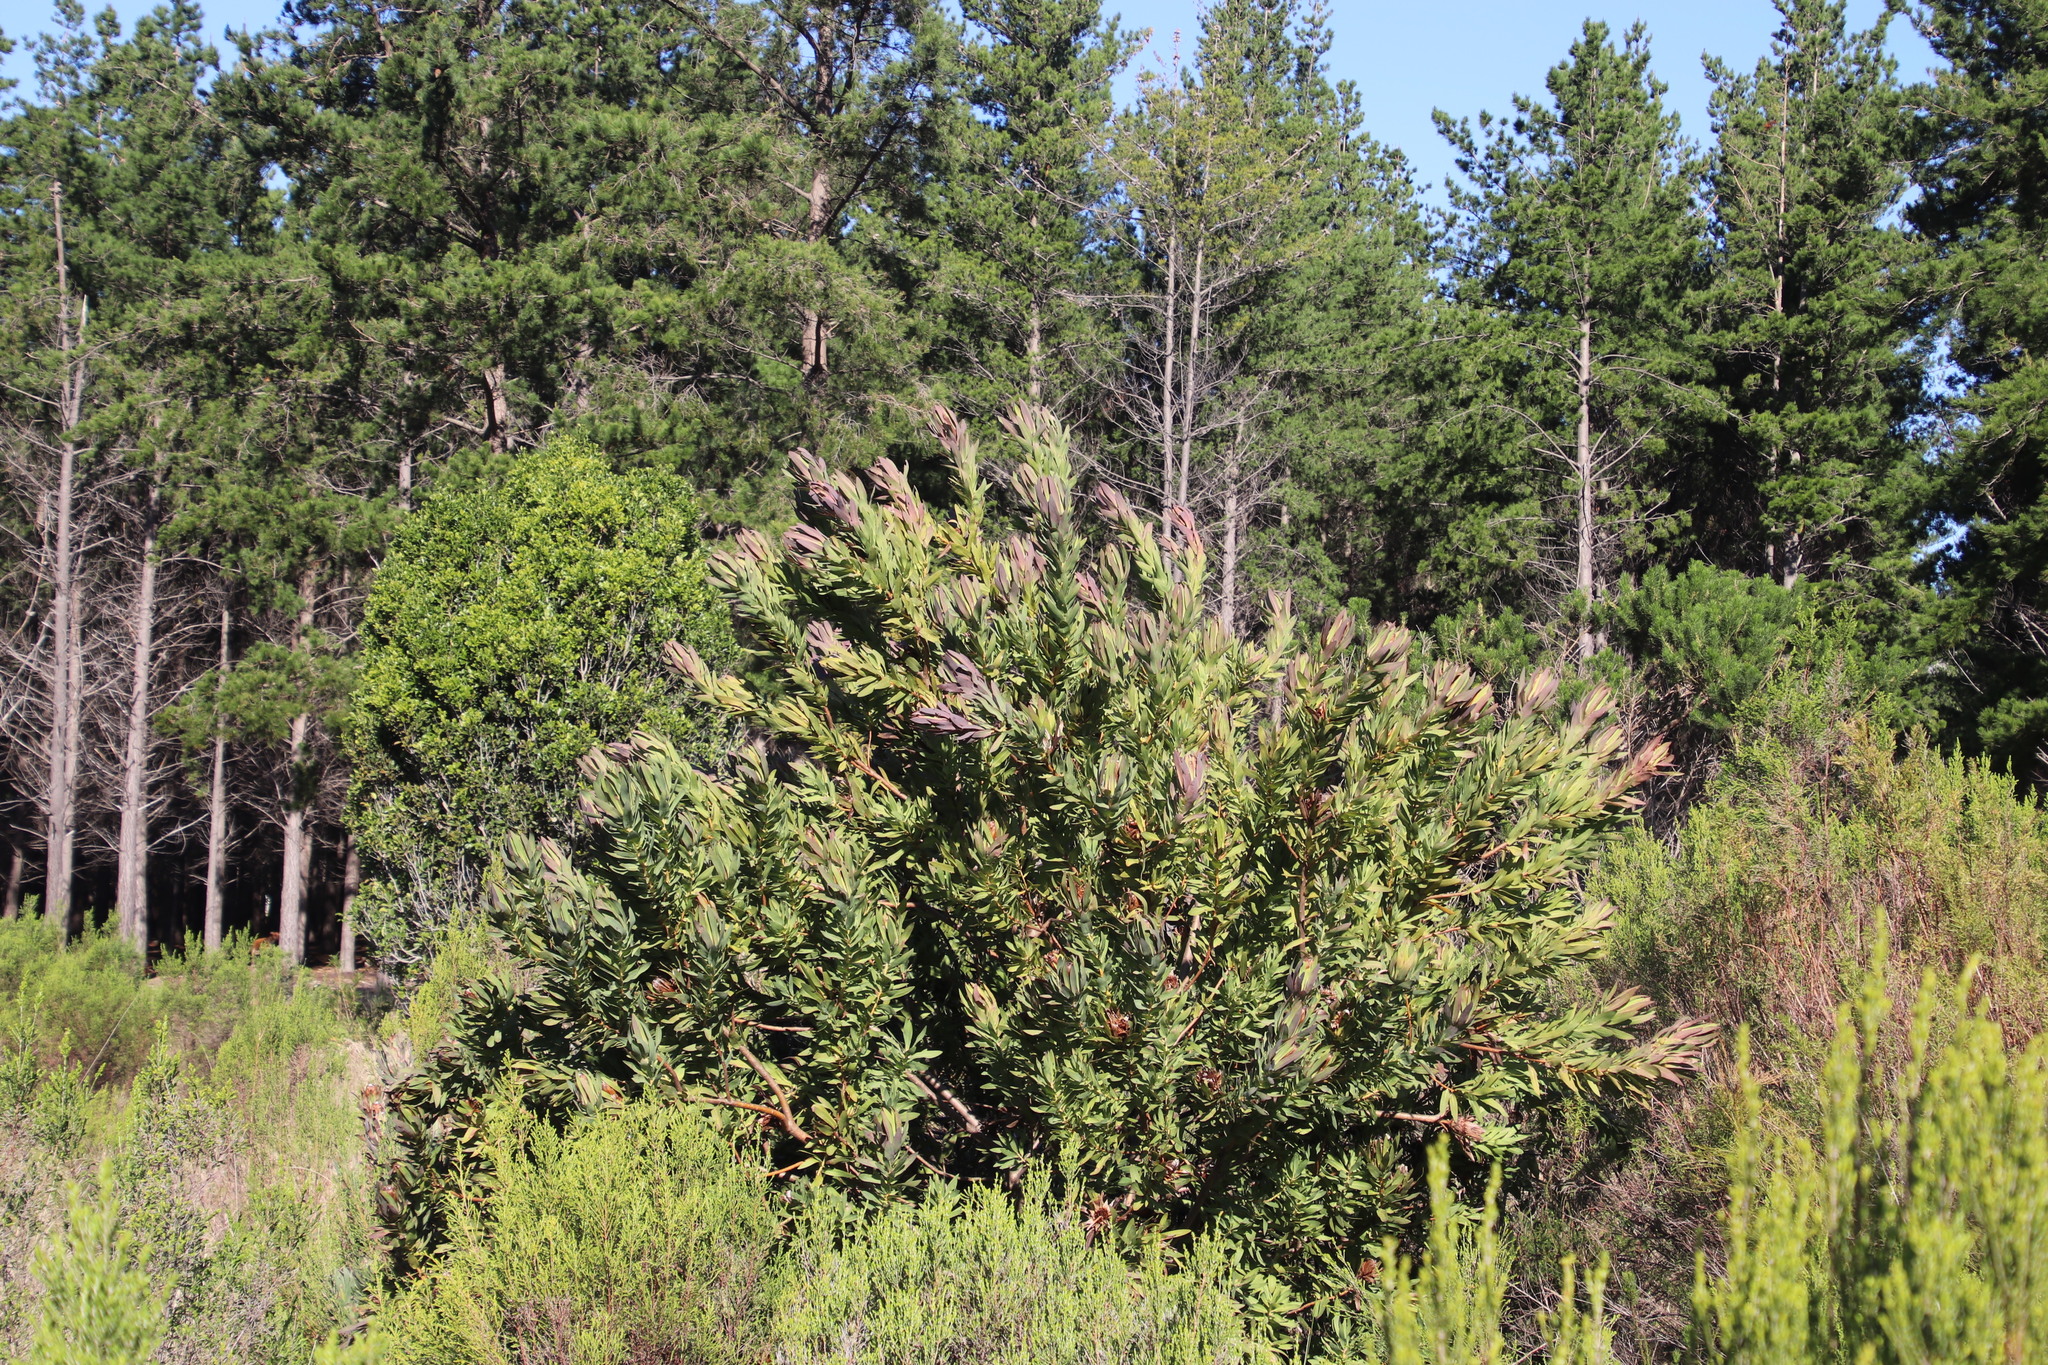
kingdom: Plantae
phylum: Tracheophyta
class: Magnoliopsida
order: Proteales
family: Proteaceae
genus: Protea
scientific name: Protea coronata
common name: Green sugarbush
